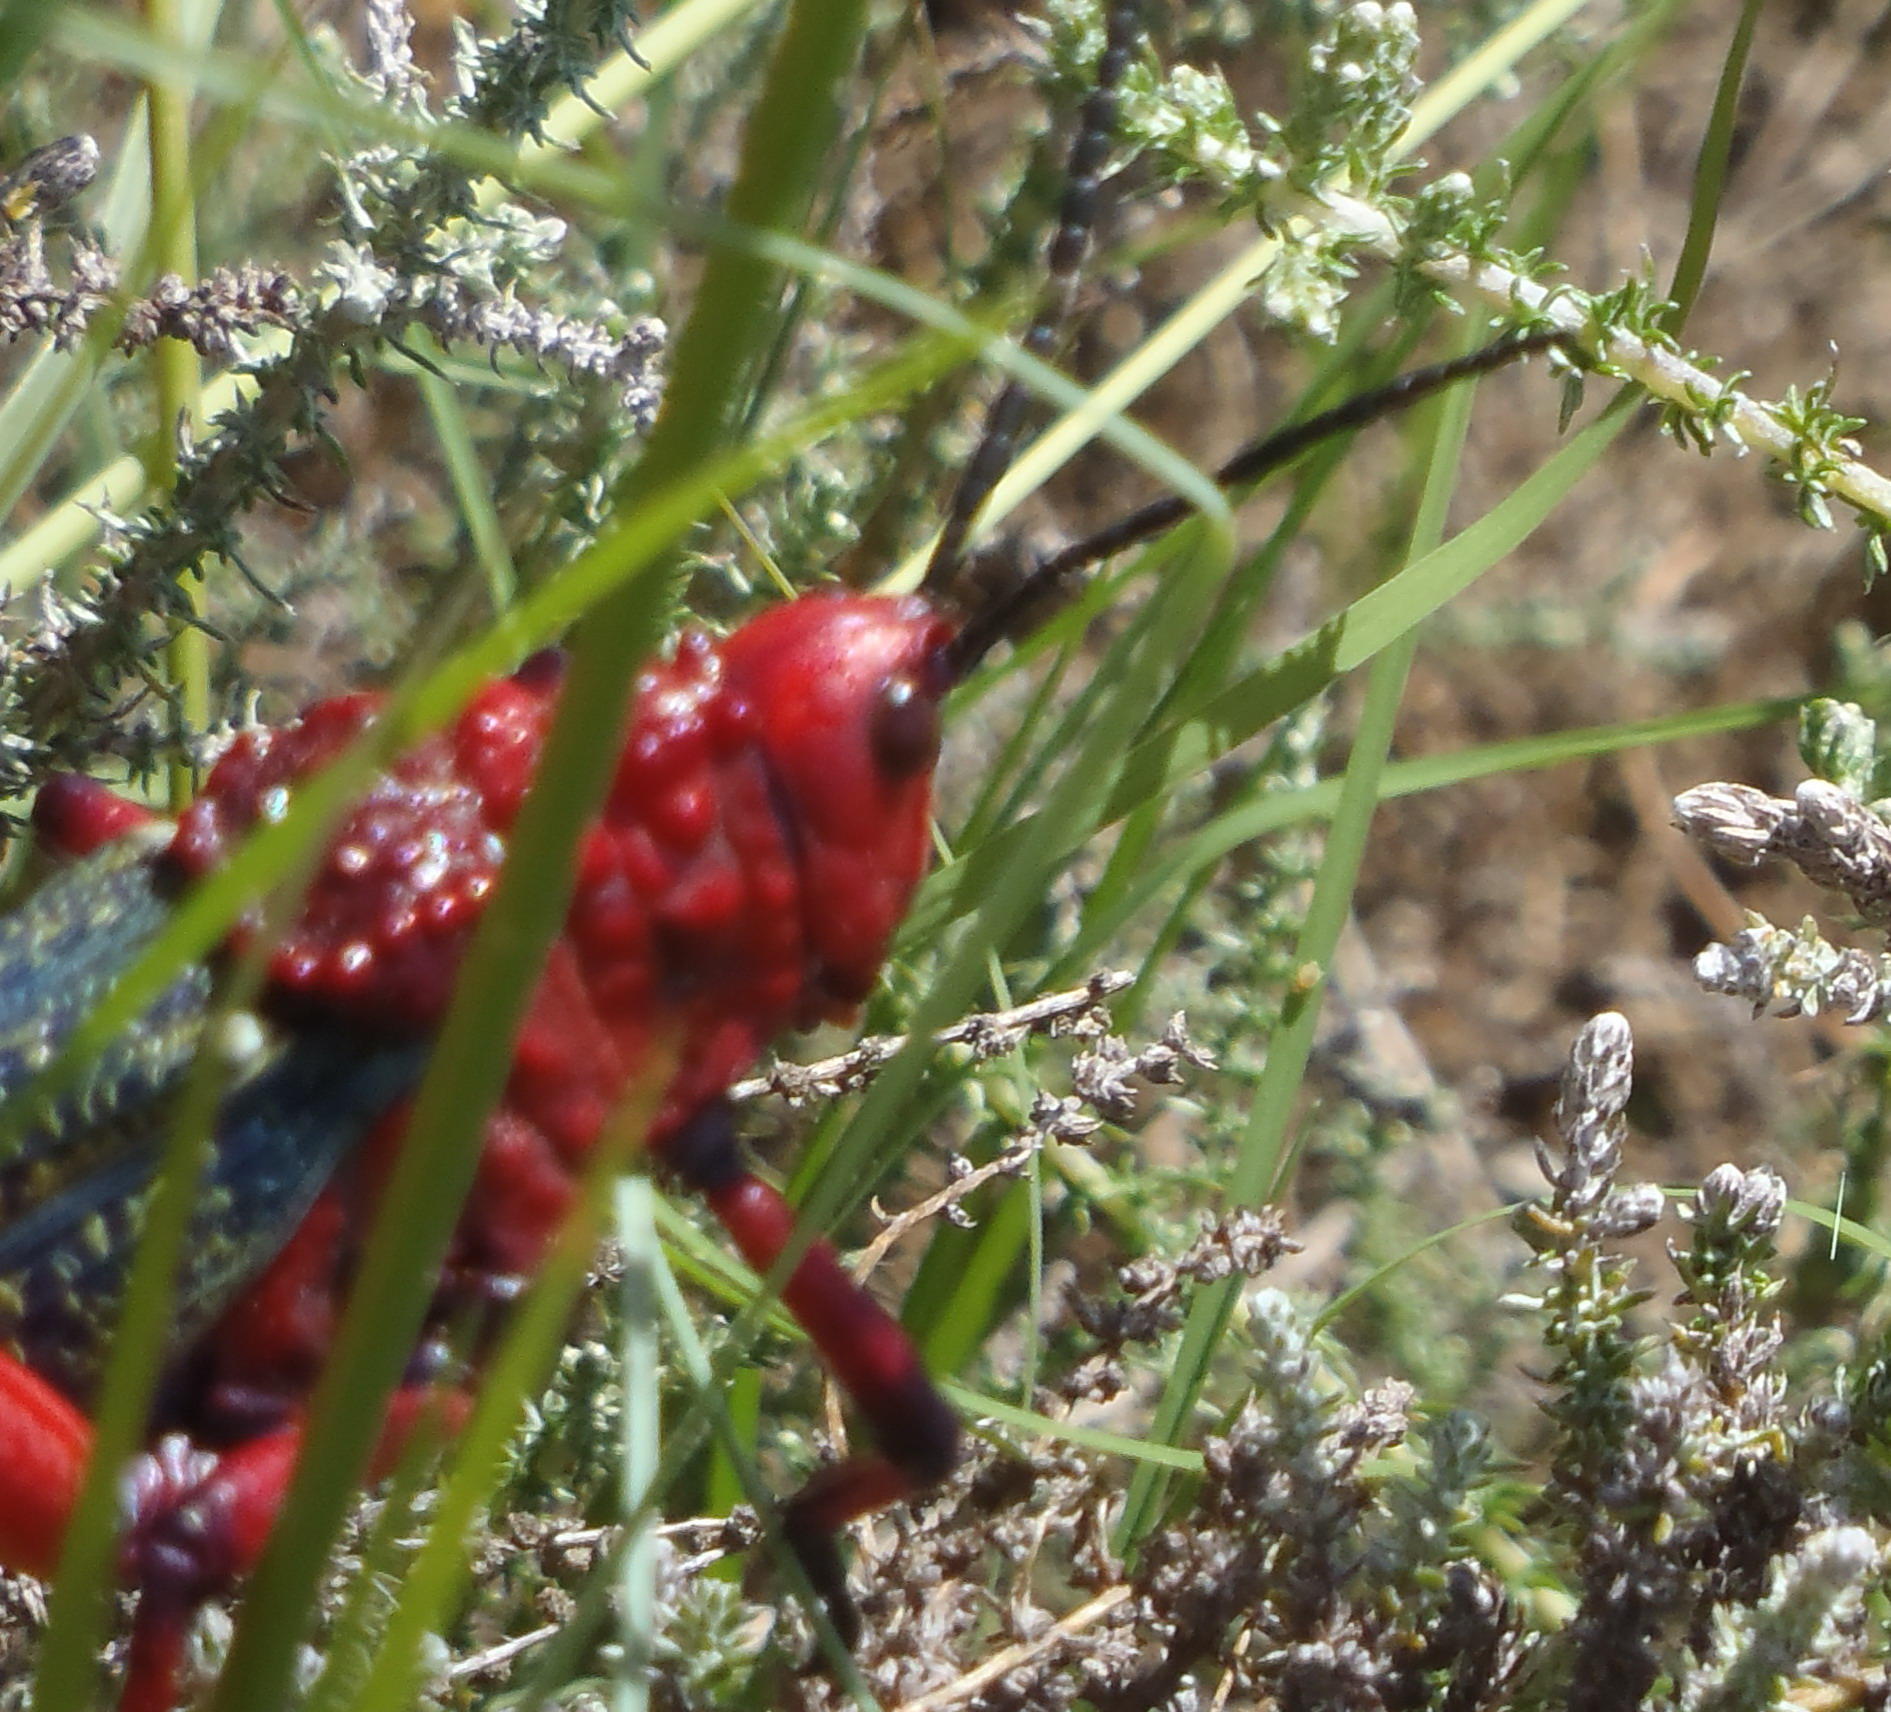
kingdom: Animalia
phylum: Arthropoda
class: Insecta
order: Orthoptera
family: Pyrgomorphidae
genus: Phymateus
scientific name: Phymateus morbillosus
